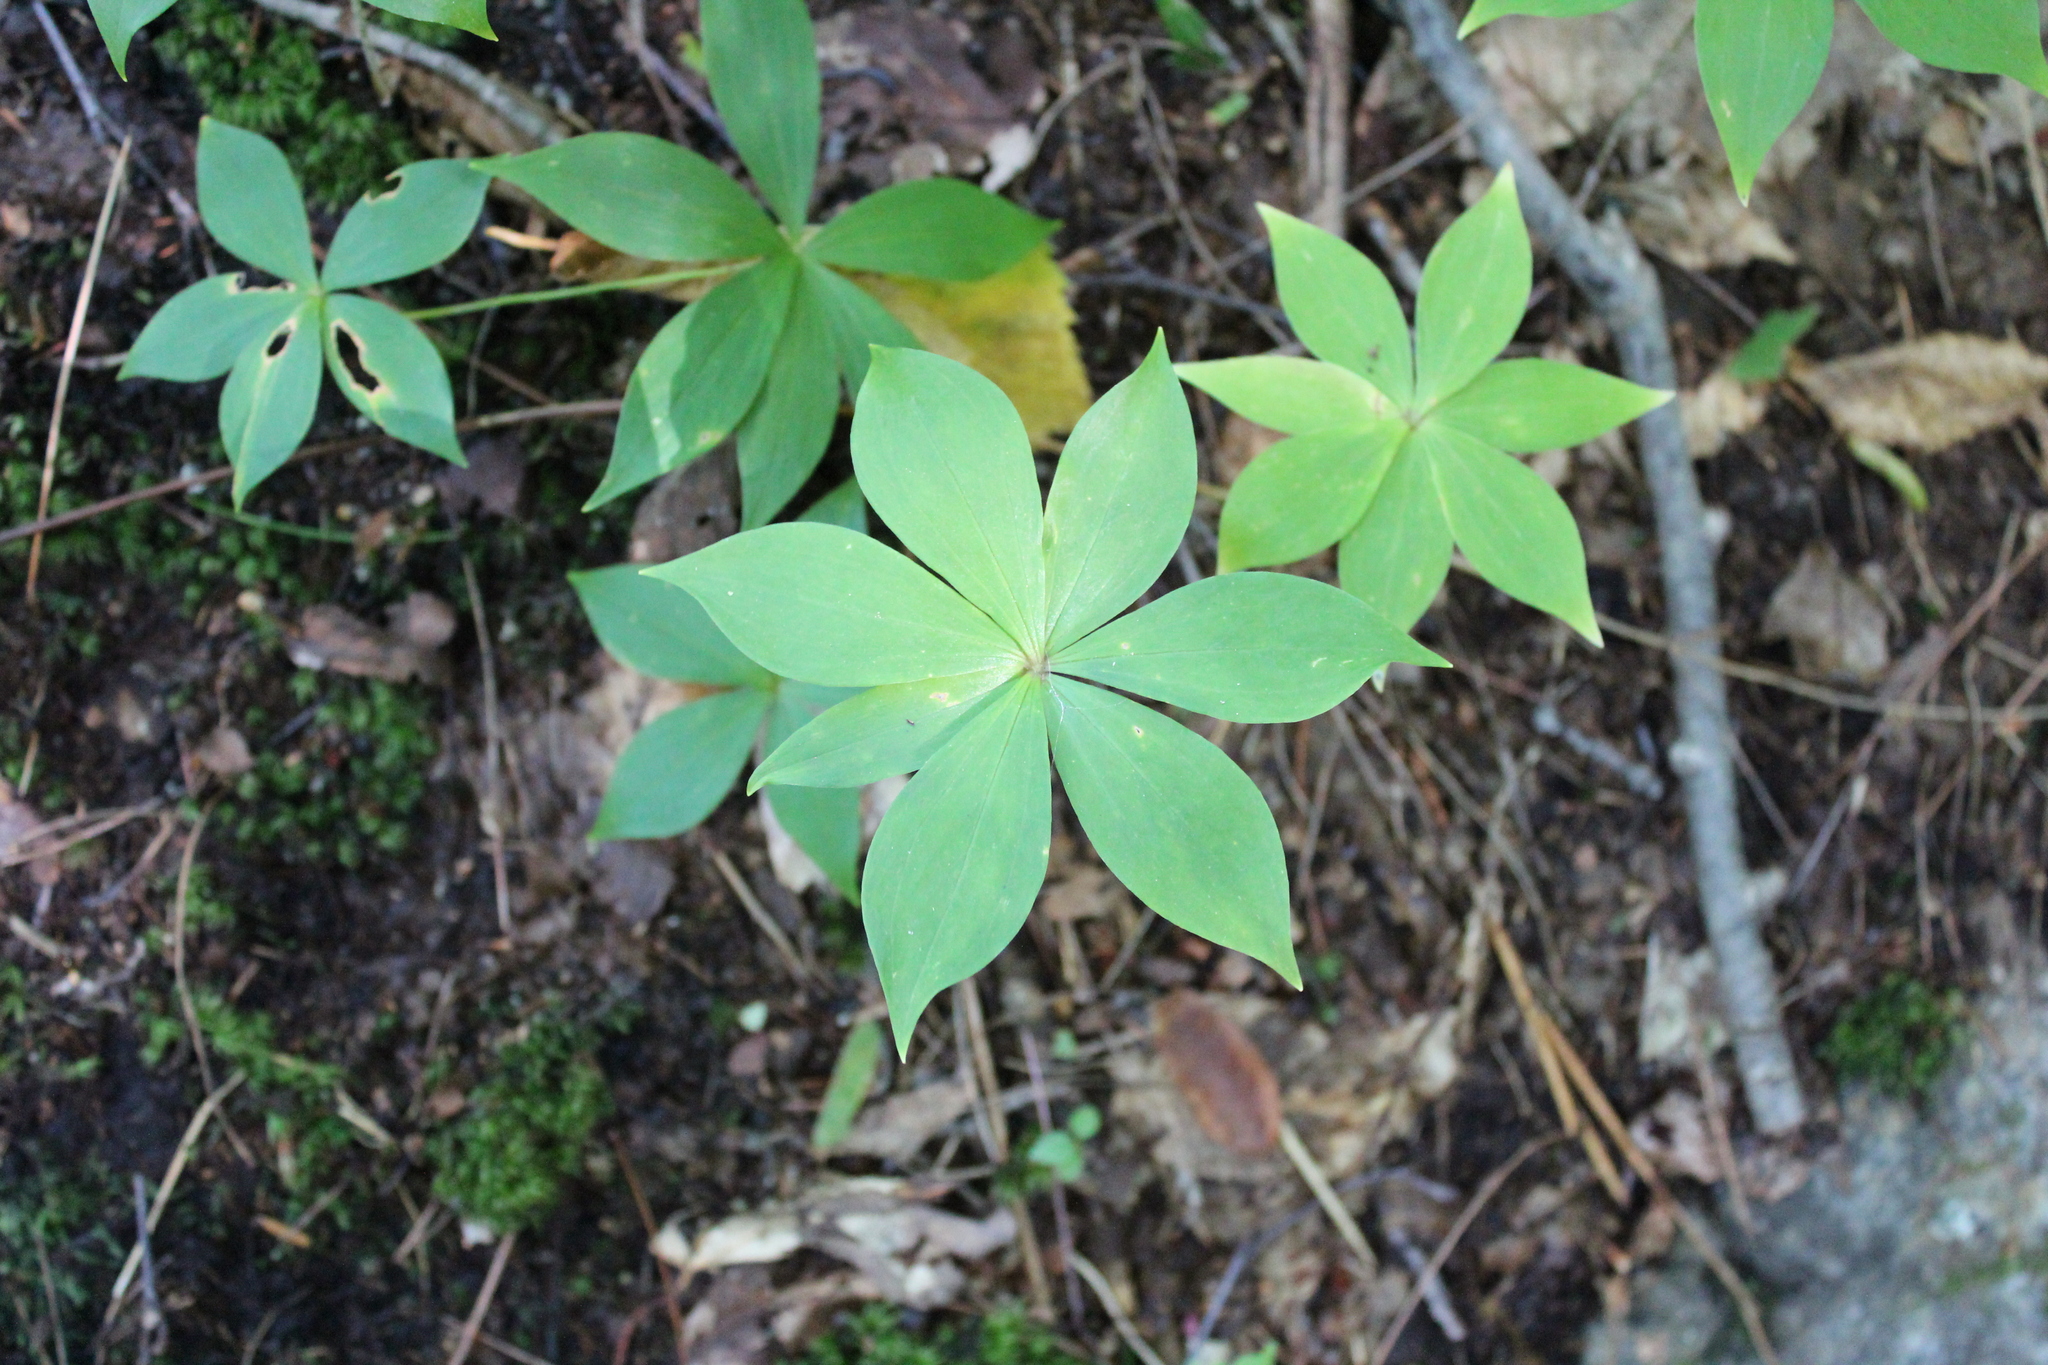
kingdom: Plantae
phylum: Tracheophyta
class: Liliopsida
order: Liliales
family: Liliaceae
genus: Medeola
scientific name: Medeola virginiana
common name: Indian cucumber-root
